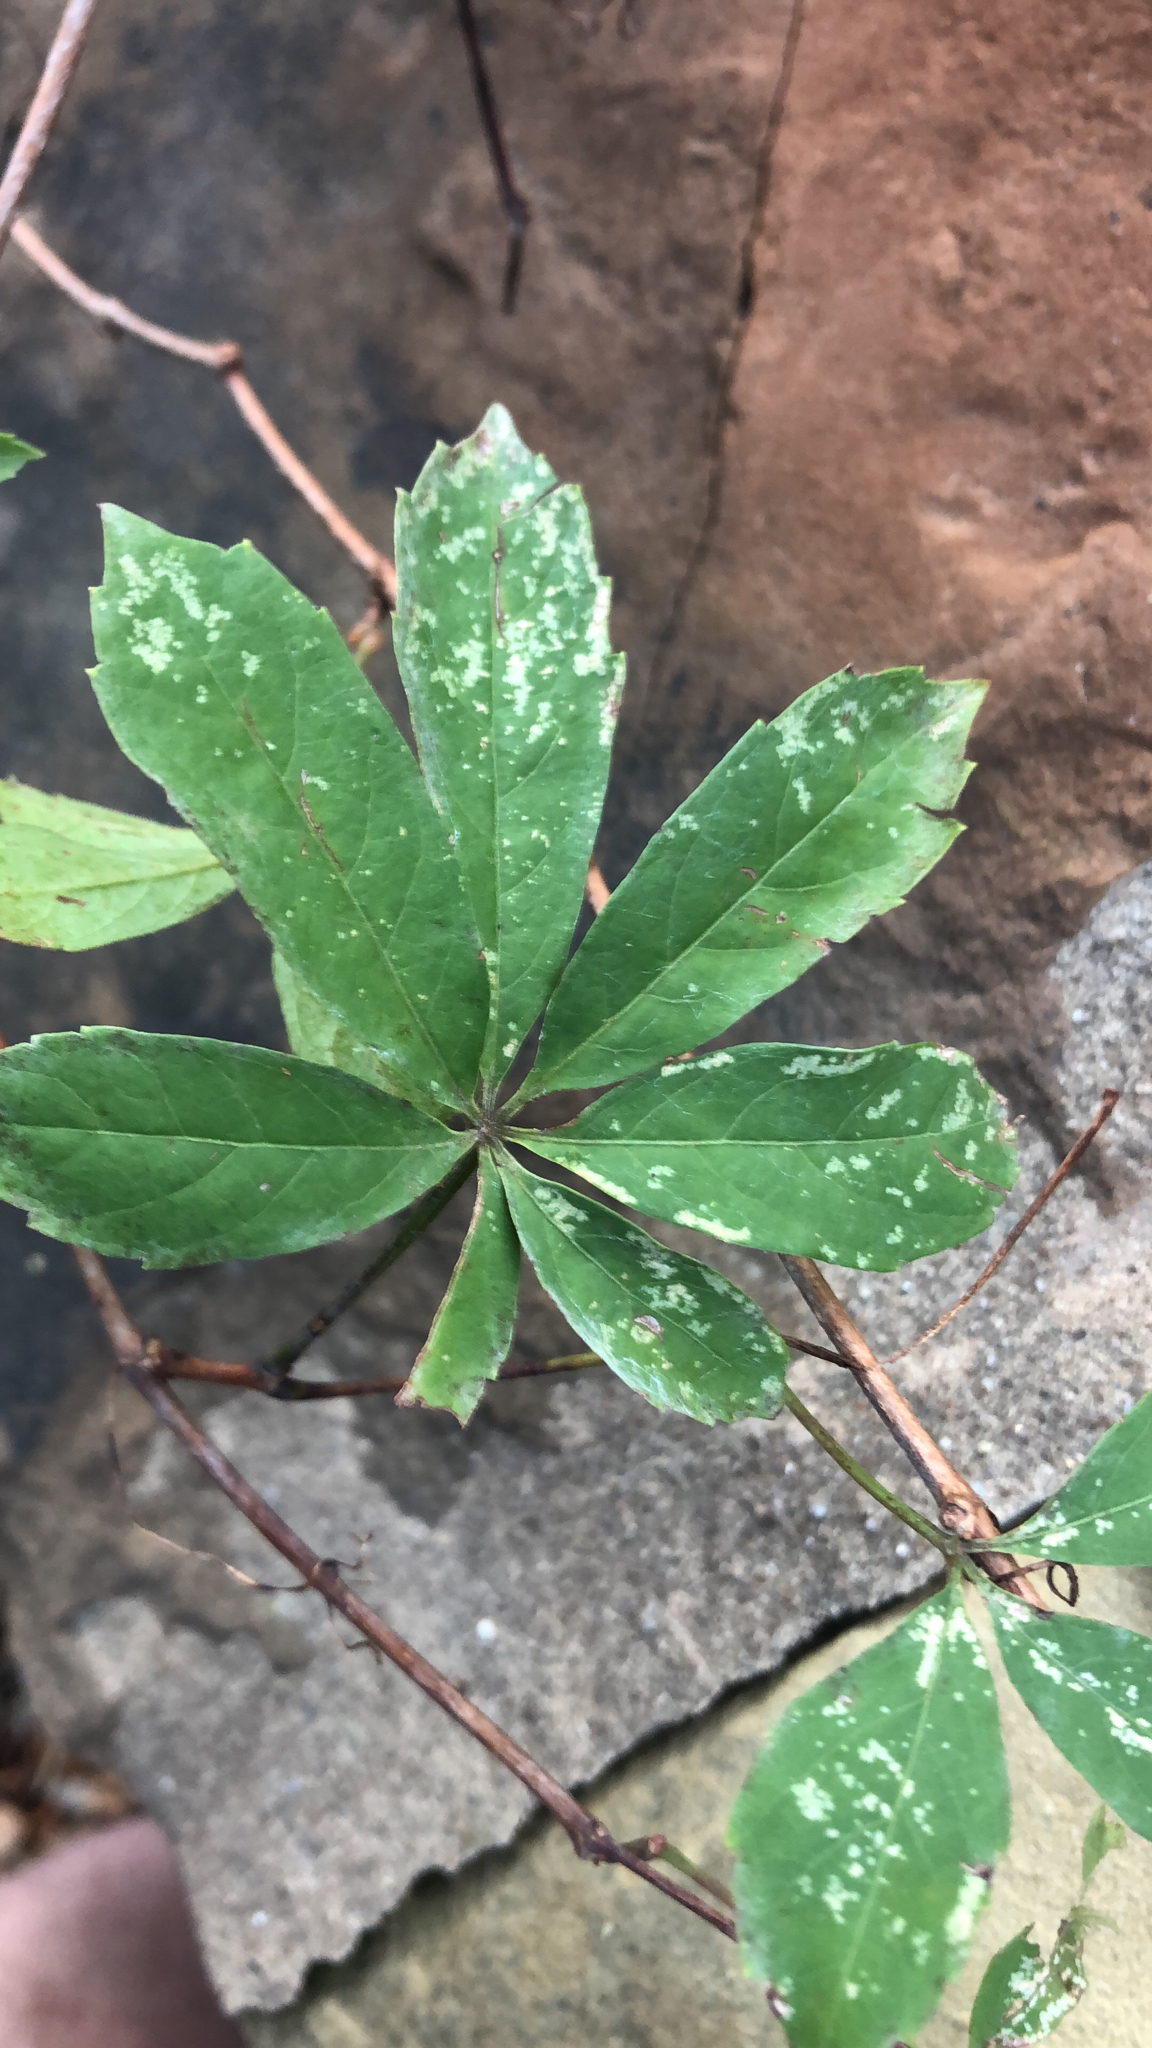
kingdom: Plantae
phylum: Tracheophyta
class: Magnoliopsida
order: Vitales
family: Vitaceae
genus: Parthenocissus
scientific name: Parthenocissus heptaphylla
